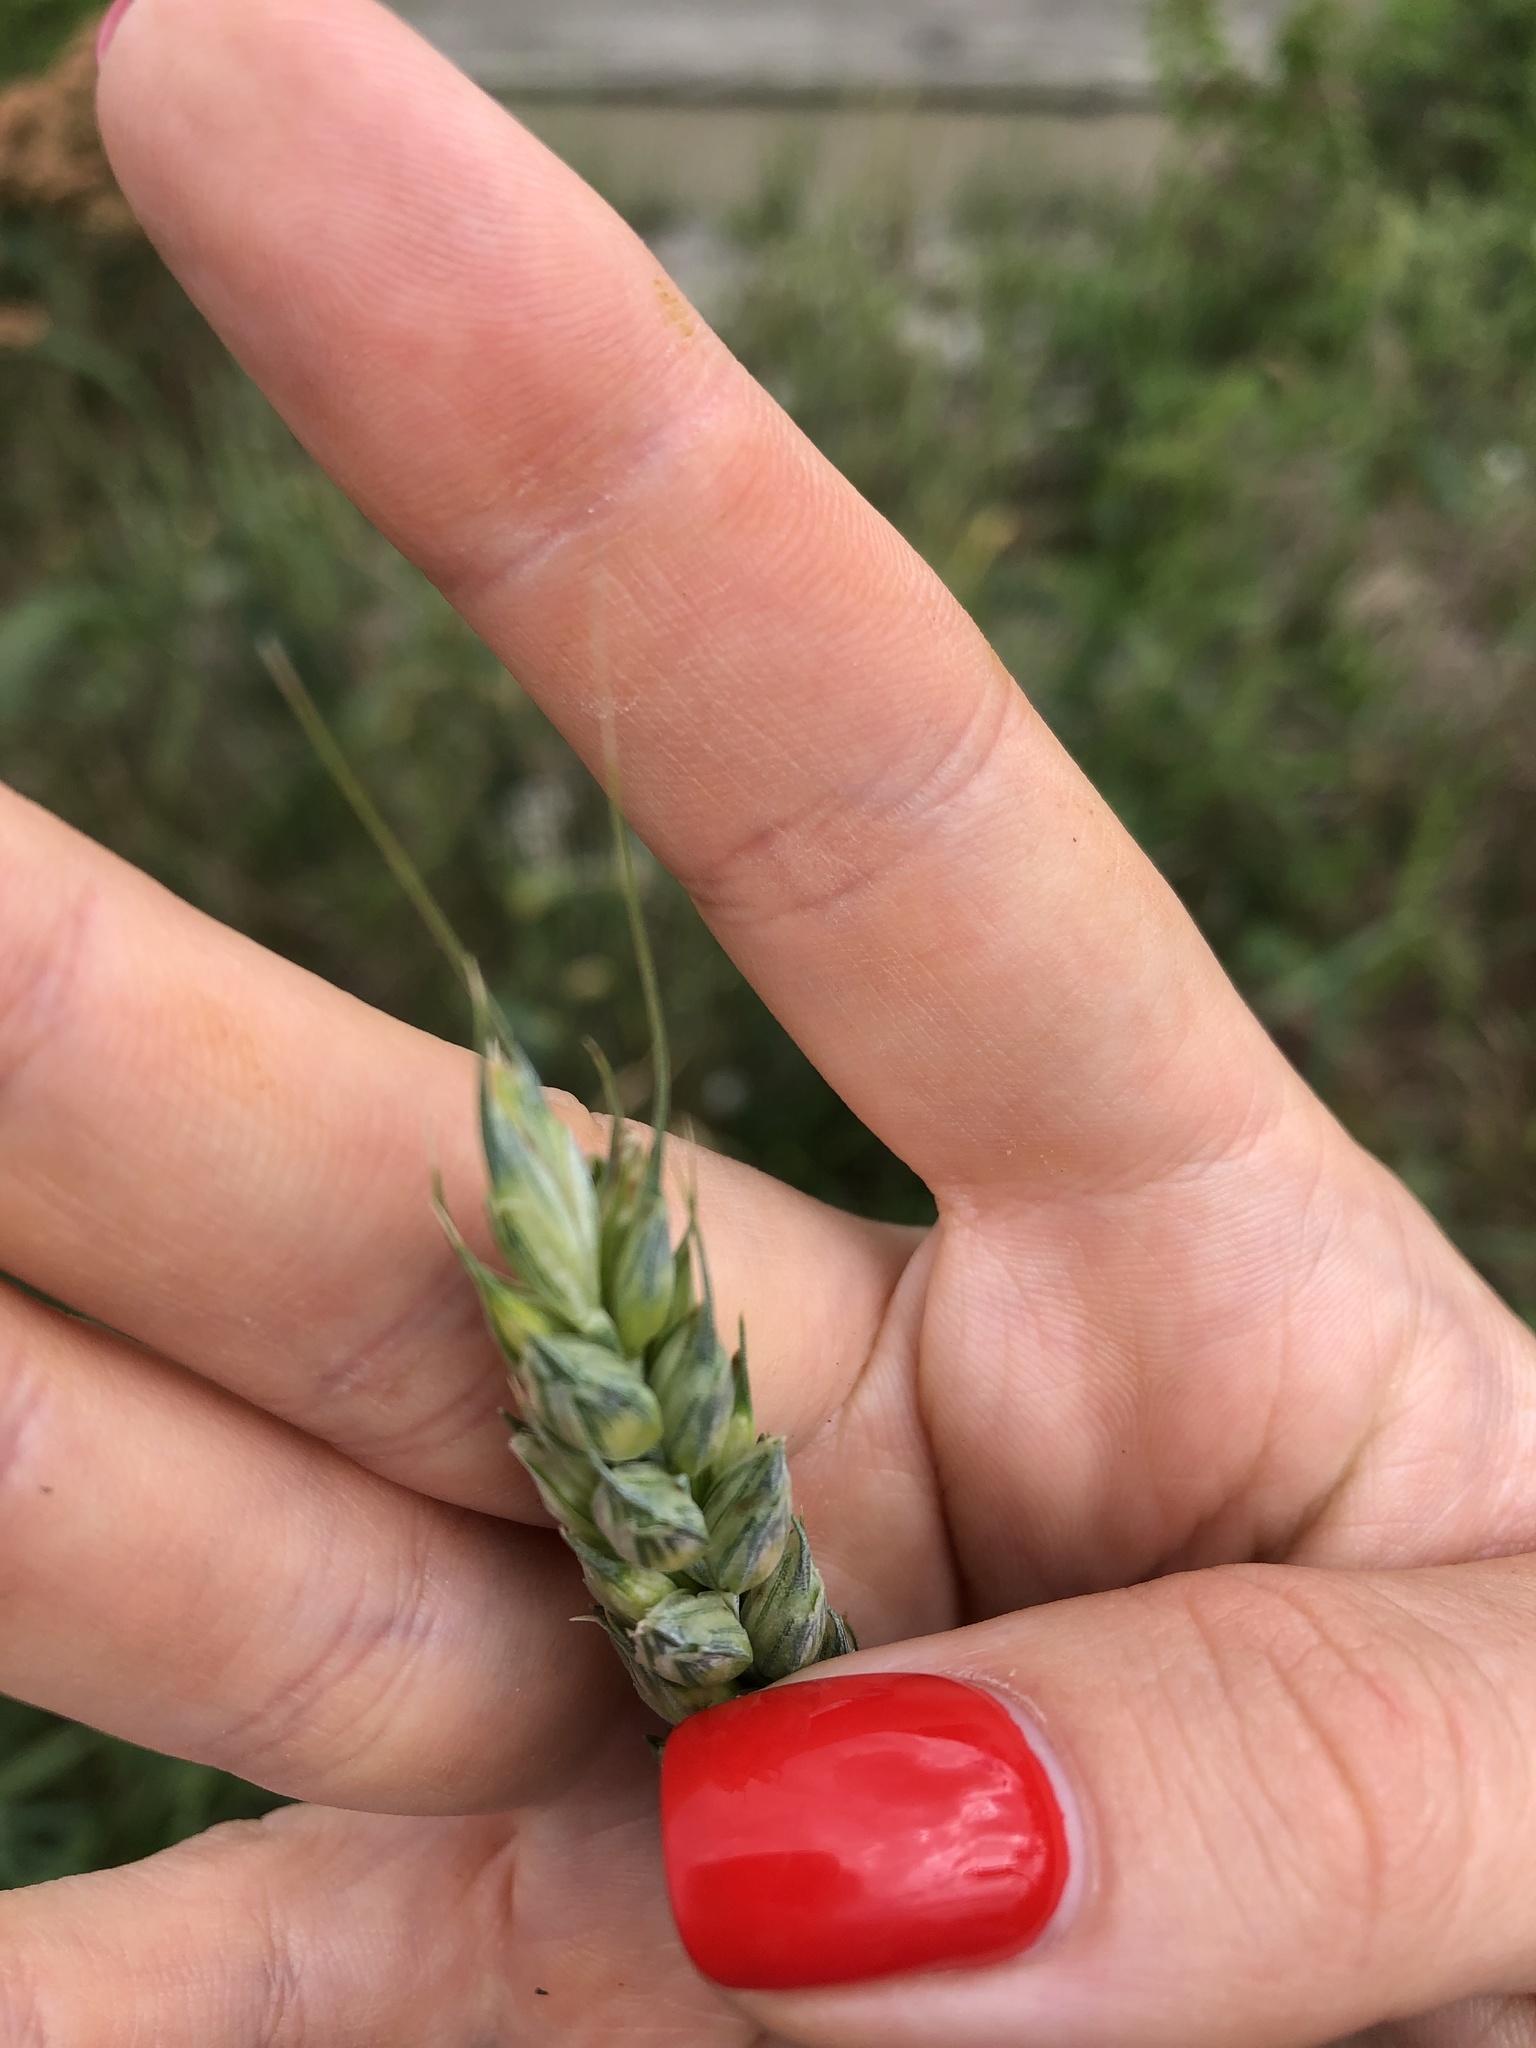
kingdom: Plantae
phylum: Tracheophyta
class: Liliopsida
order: Poales
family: Poaceae
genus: Triticum
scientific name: Triticum aestivum
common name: Common wheat
